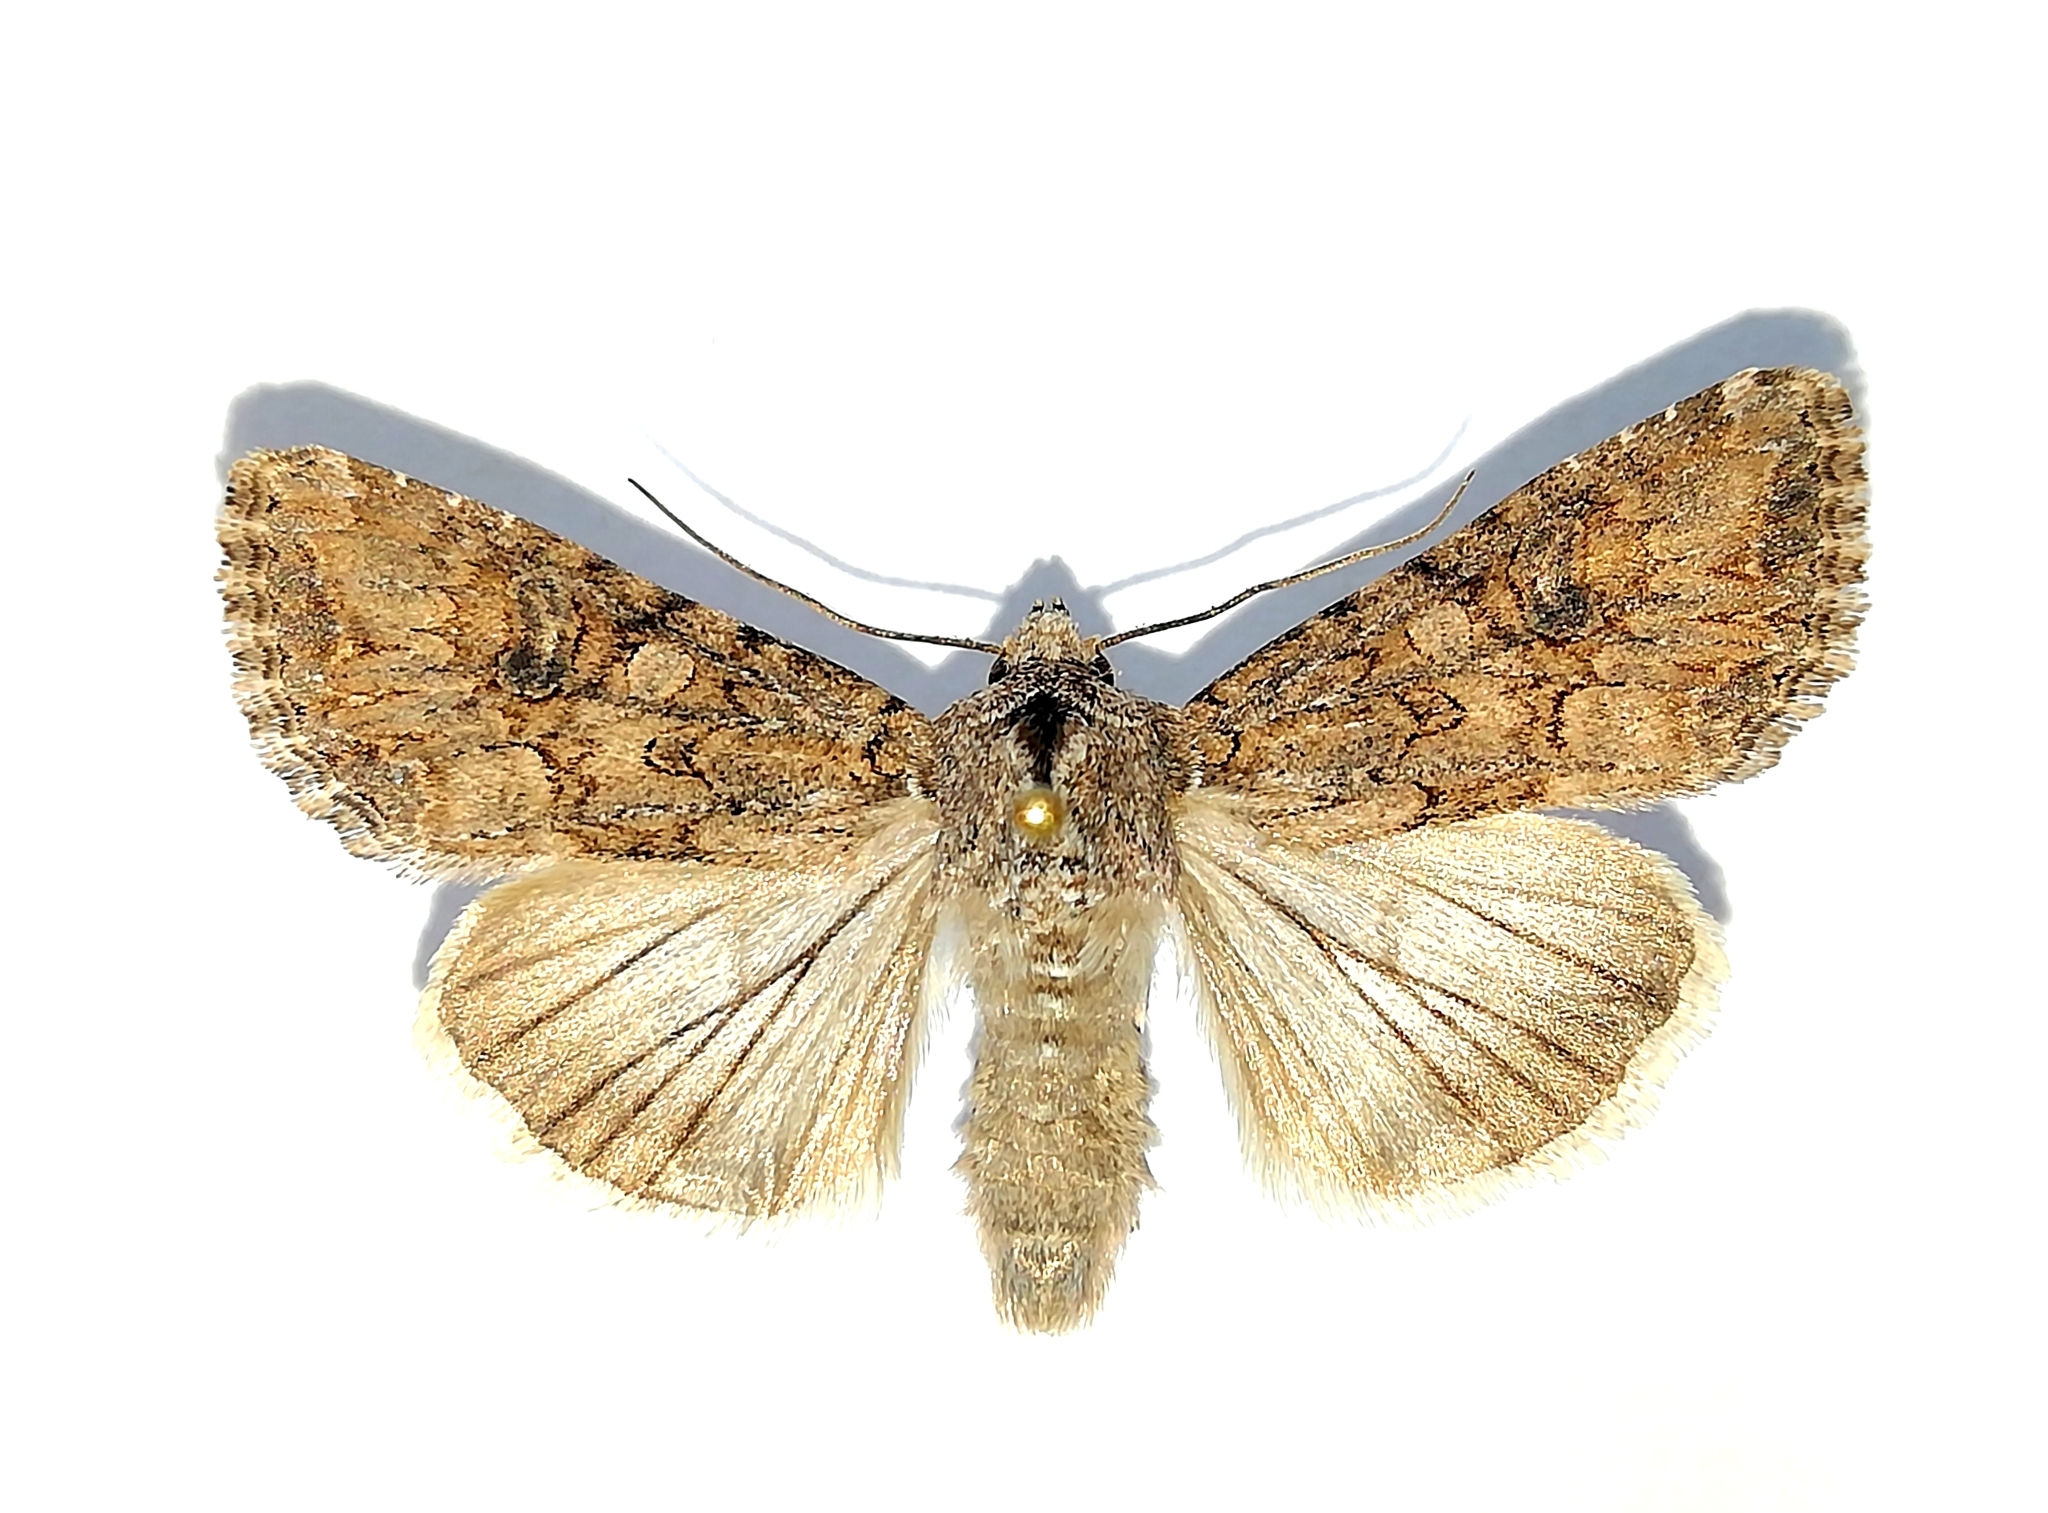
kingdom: Animalia
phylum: Arthropoda
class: Insecta
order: Lepidoptera
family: Noctuidae
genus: Anarta
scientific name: Anarta trifolii
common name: Clover cutworm moth
